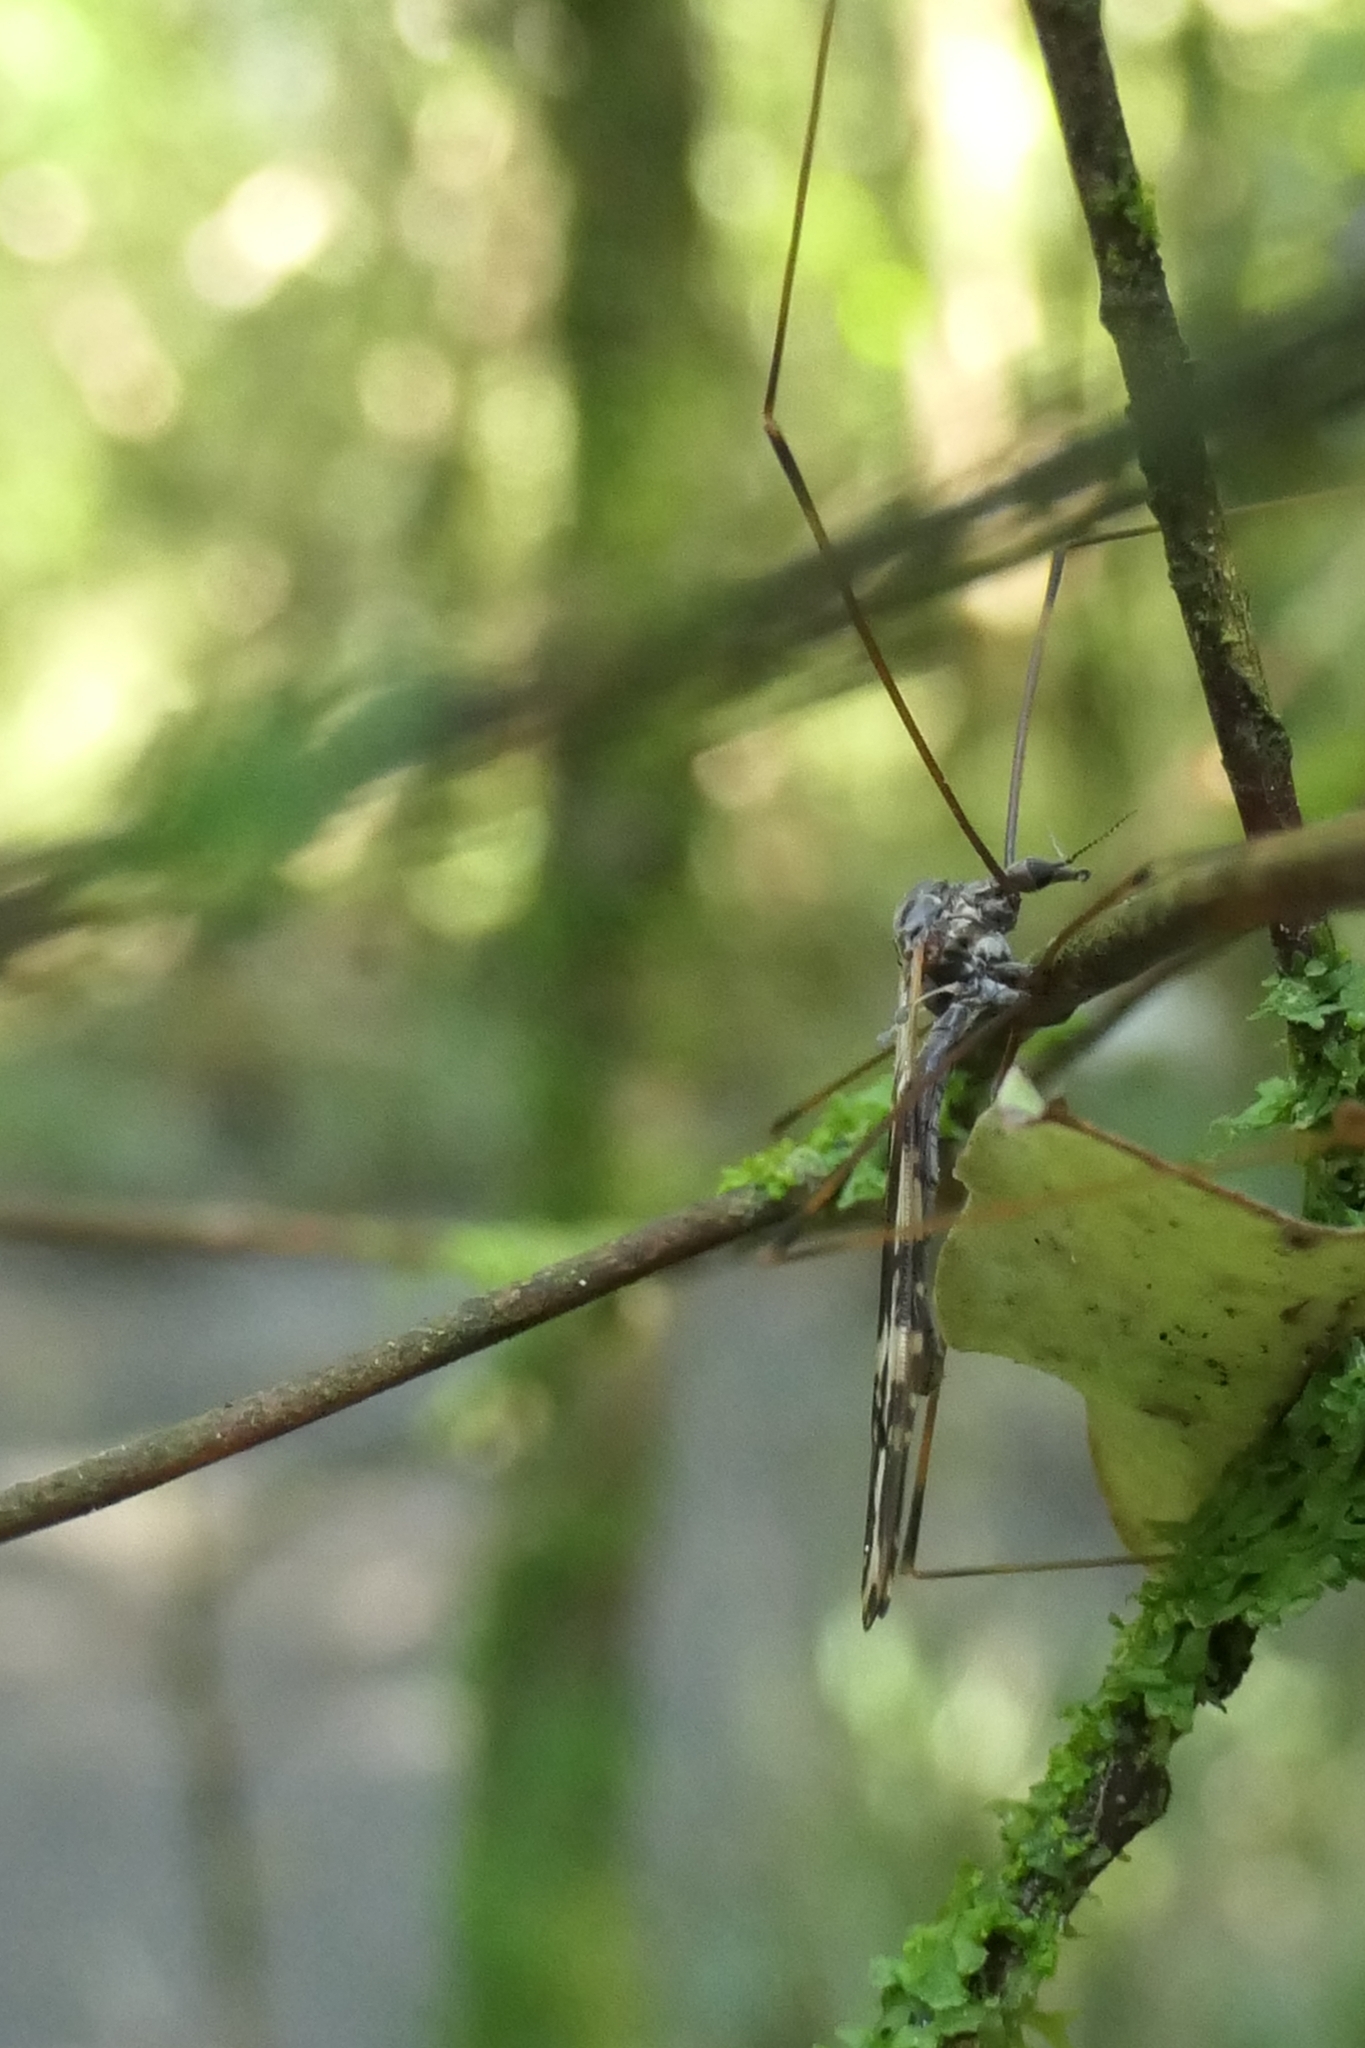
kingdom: Animalia
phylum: Arthropoda
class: Insecta
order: Diptera
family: Limoniidae
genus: Discobola
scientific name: Discobola dohrni
